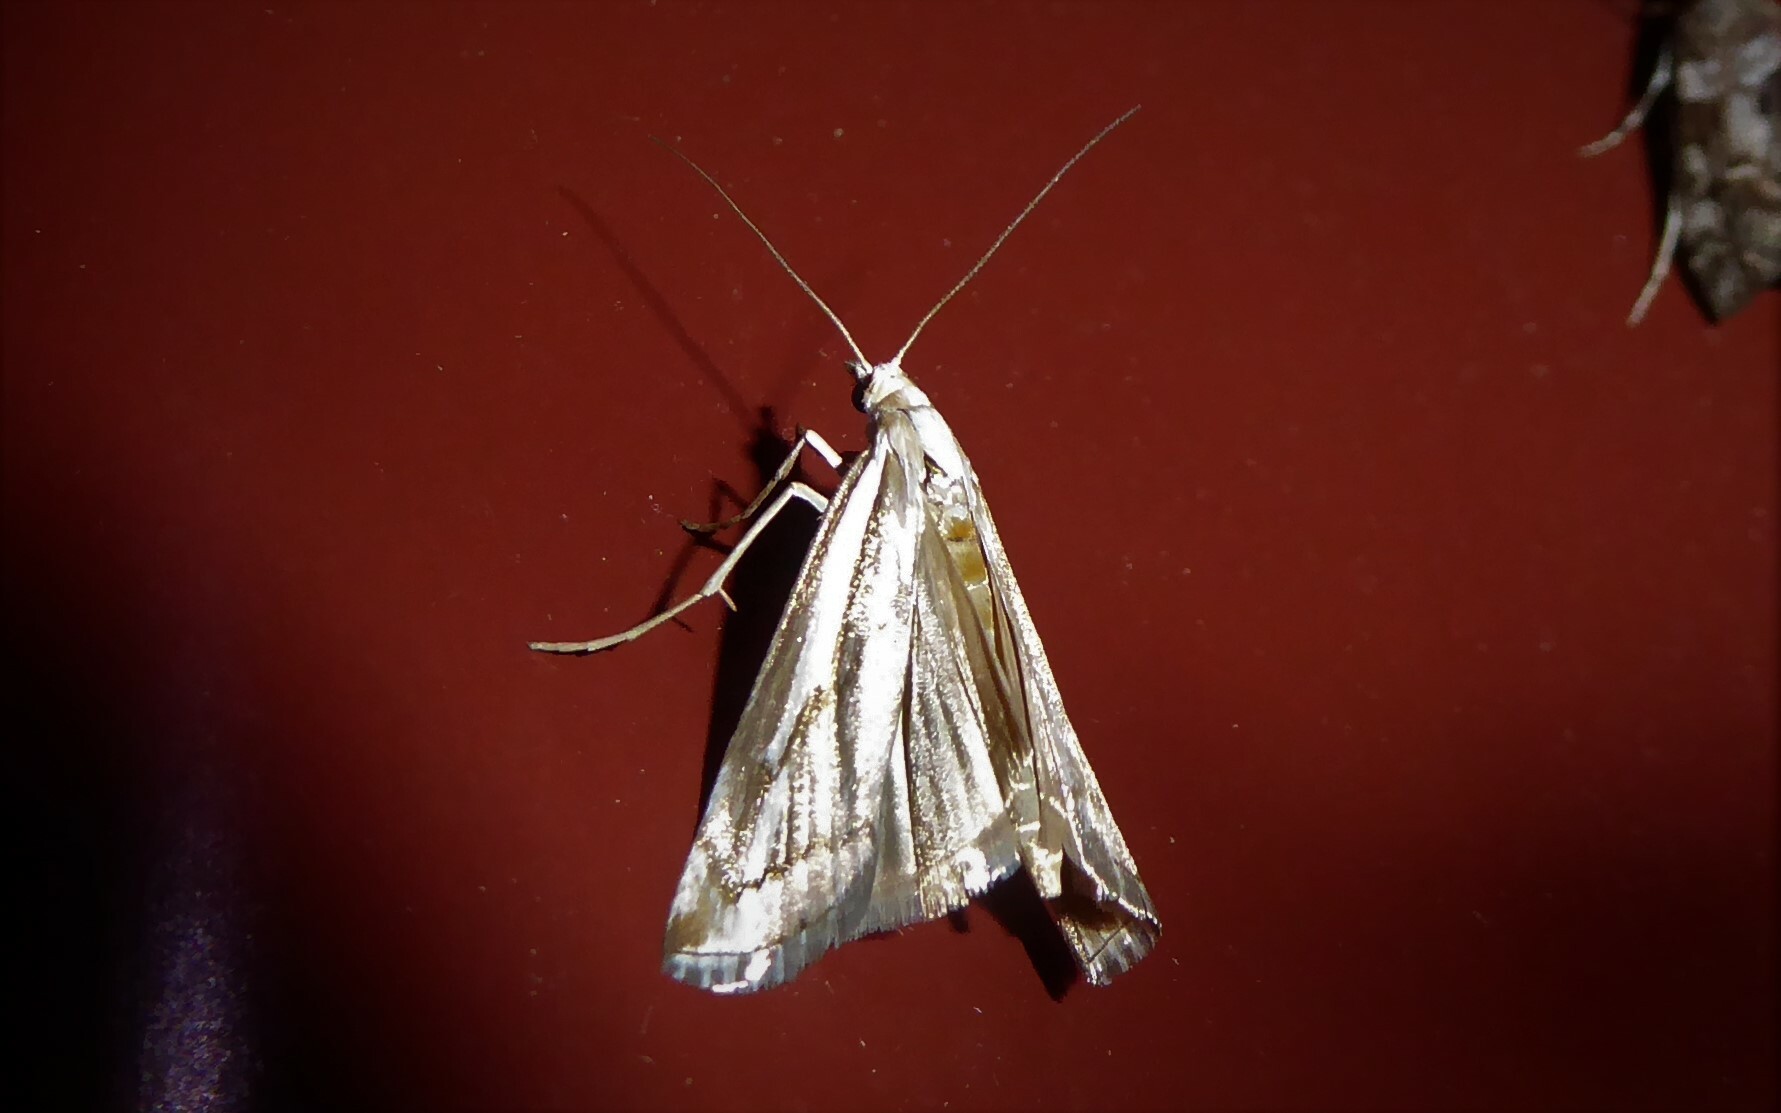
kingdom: Animalia
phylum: Arthropoda
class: Insecta
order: Lepidoptera
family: Crambidae
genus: Orocrambus
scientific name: Orocrambus vittellus
